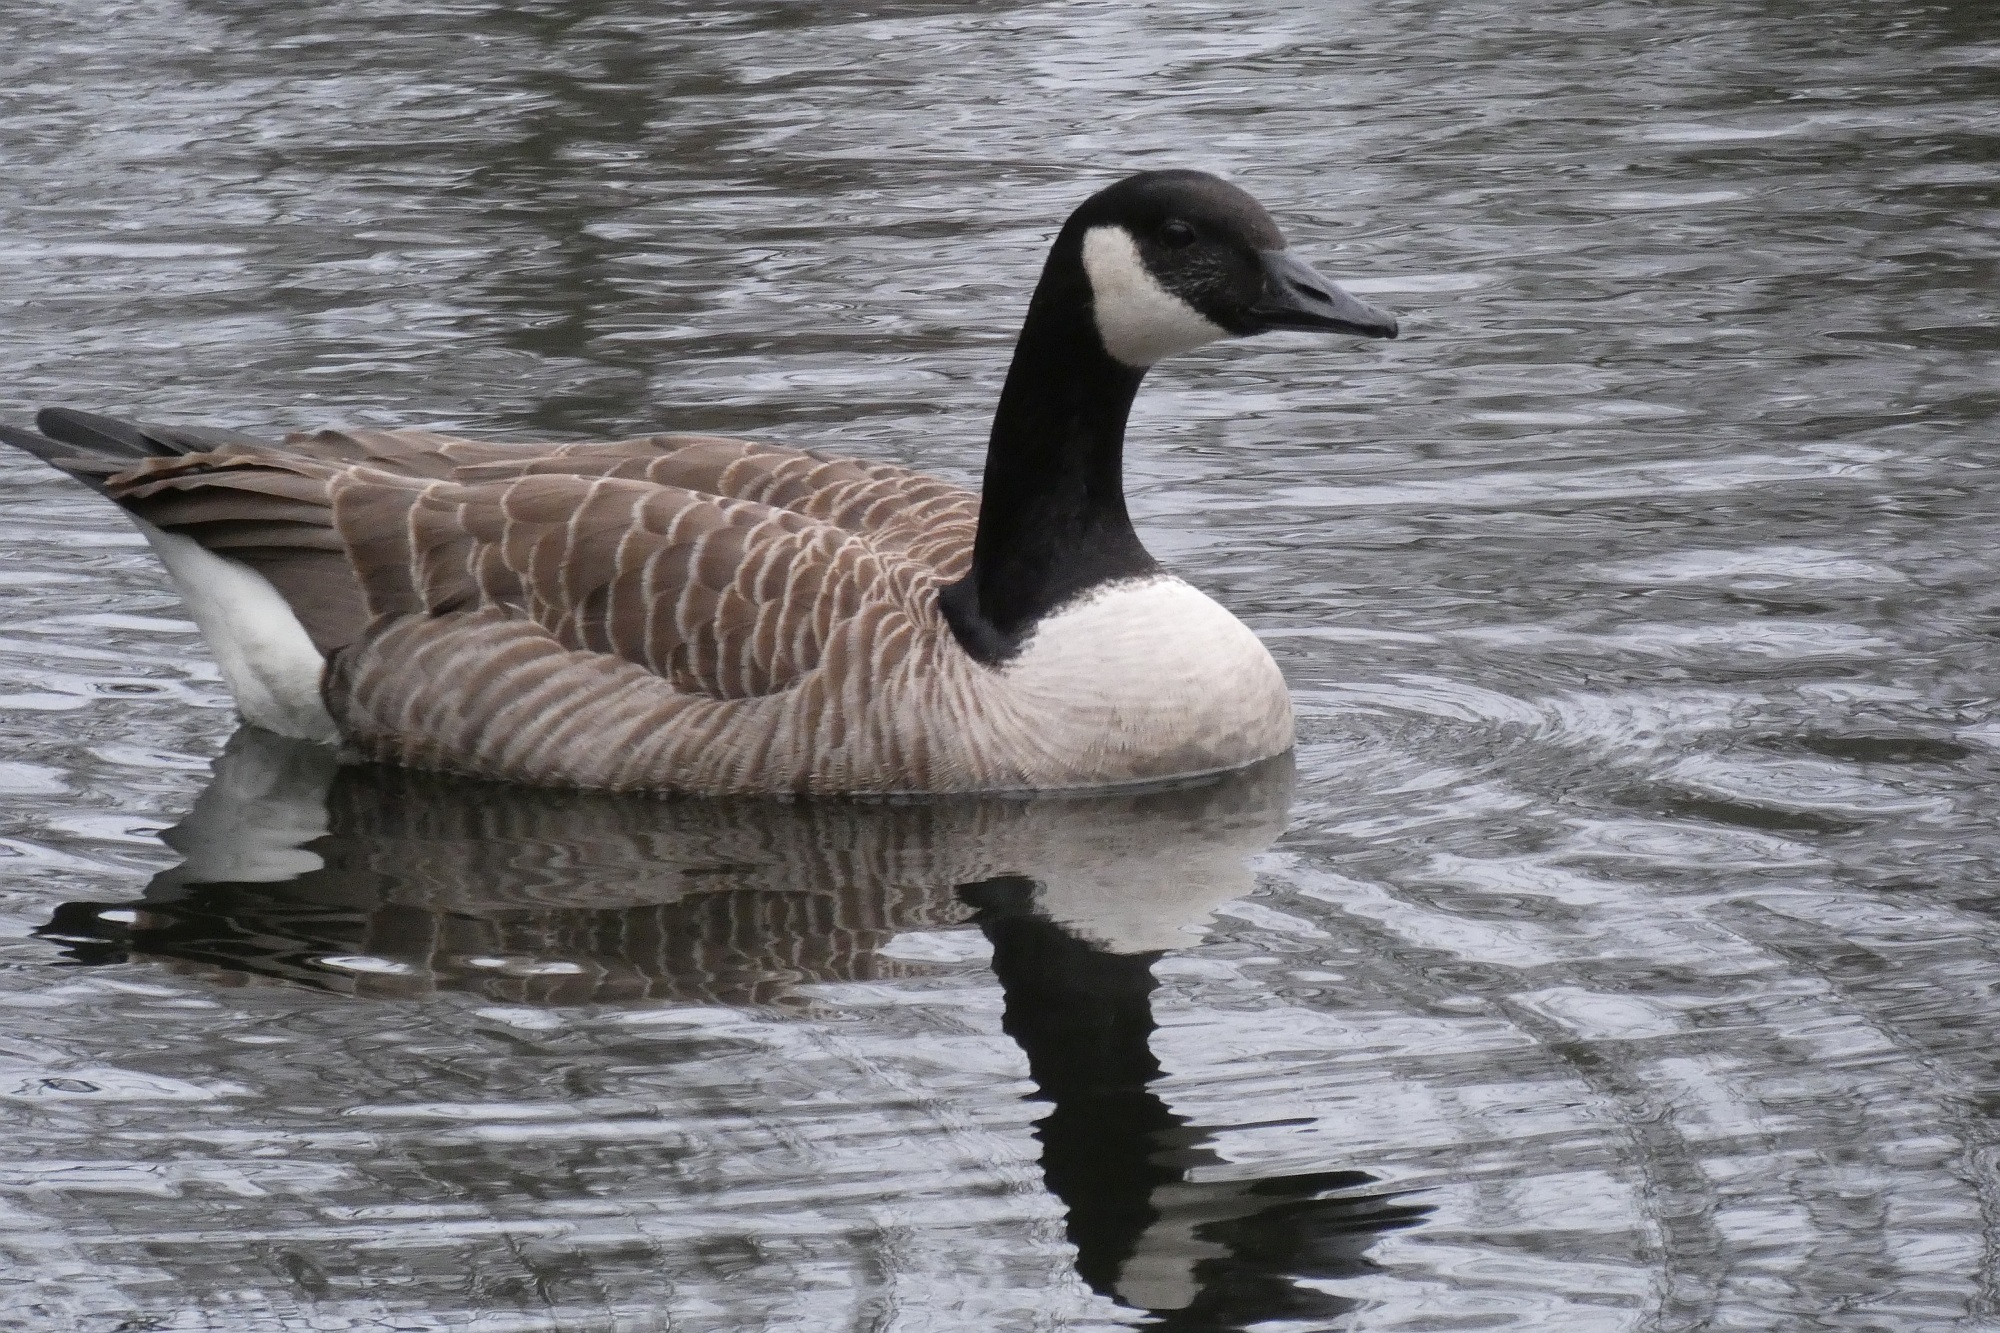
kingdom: Animalia
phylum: Chordata
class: Aves
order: Anseriformes
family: Anatidae
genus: Branta
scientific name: Branta canadensis
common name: Canada goose
